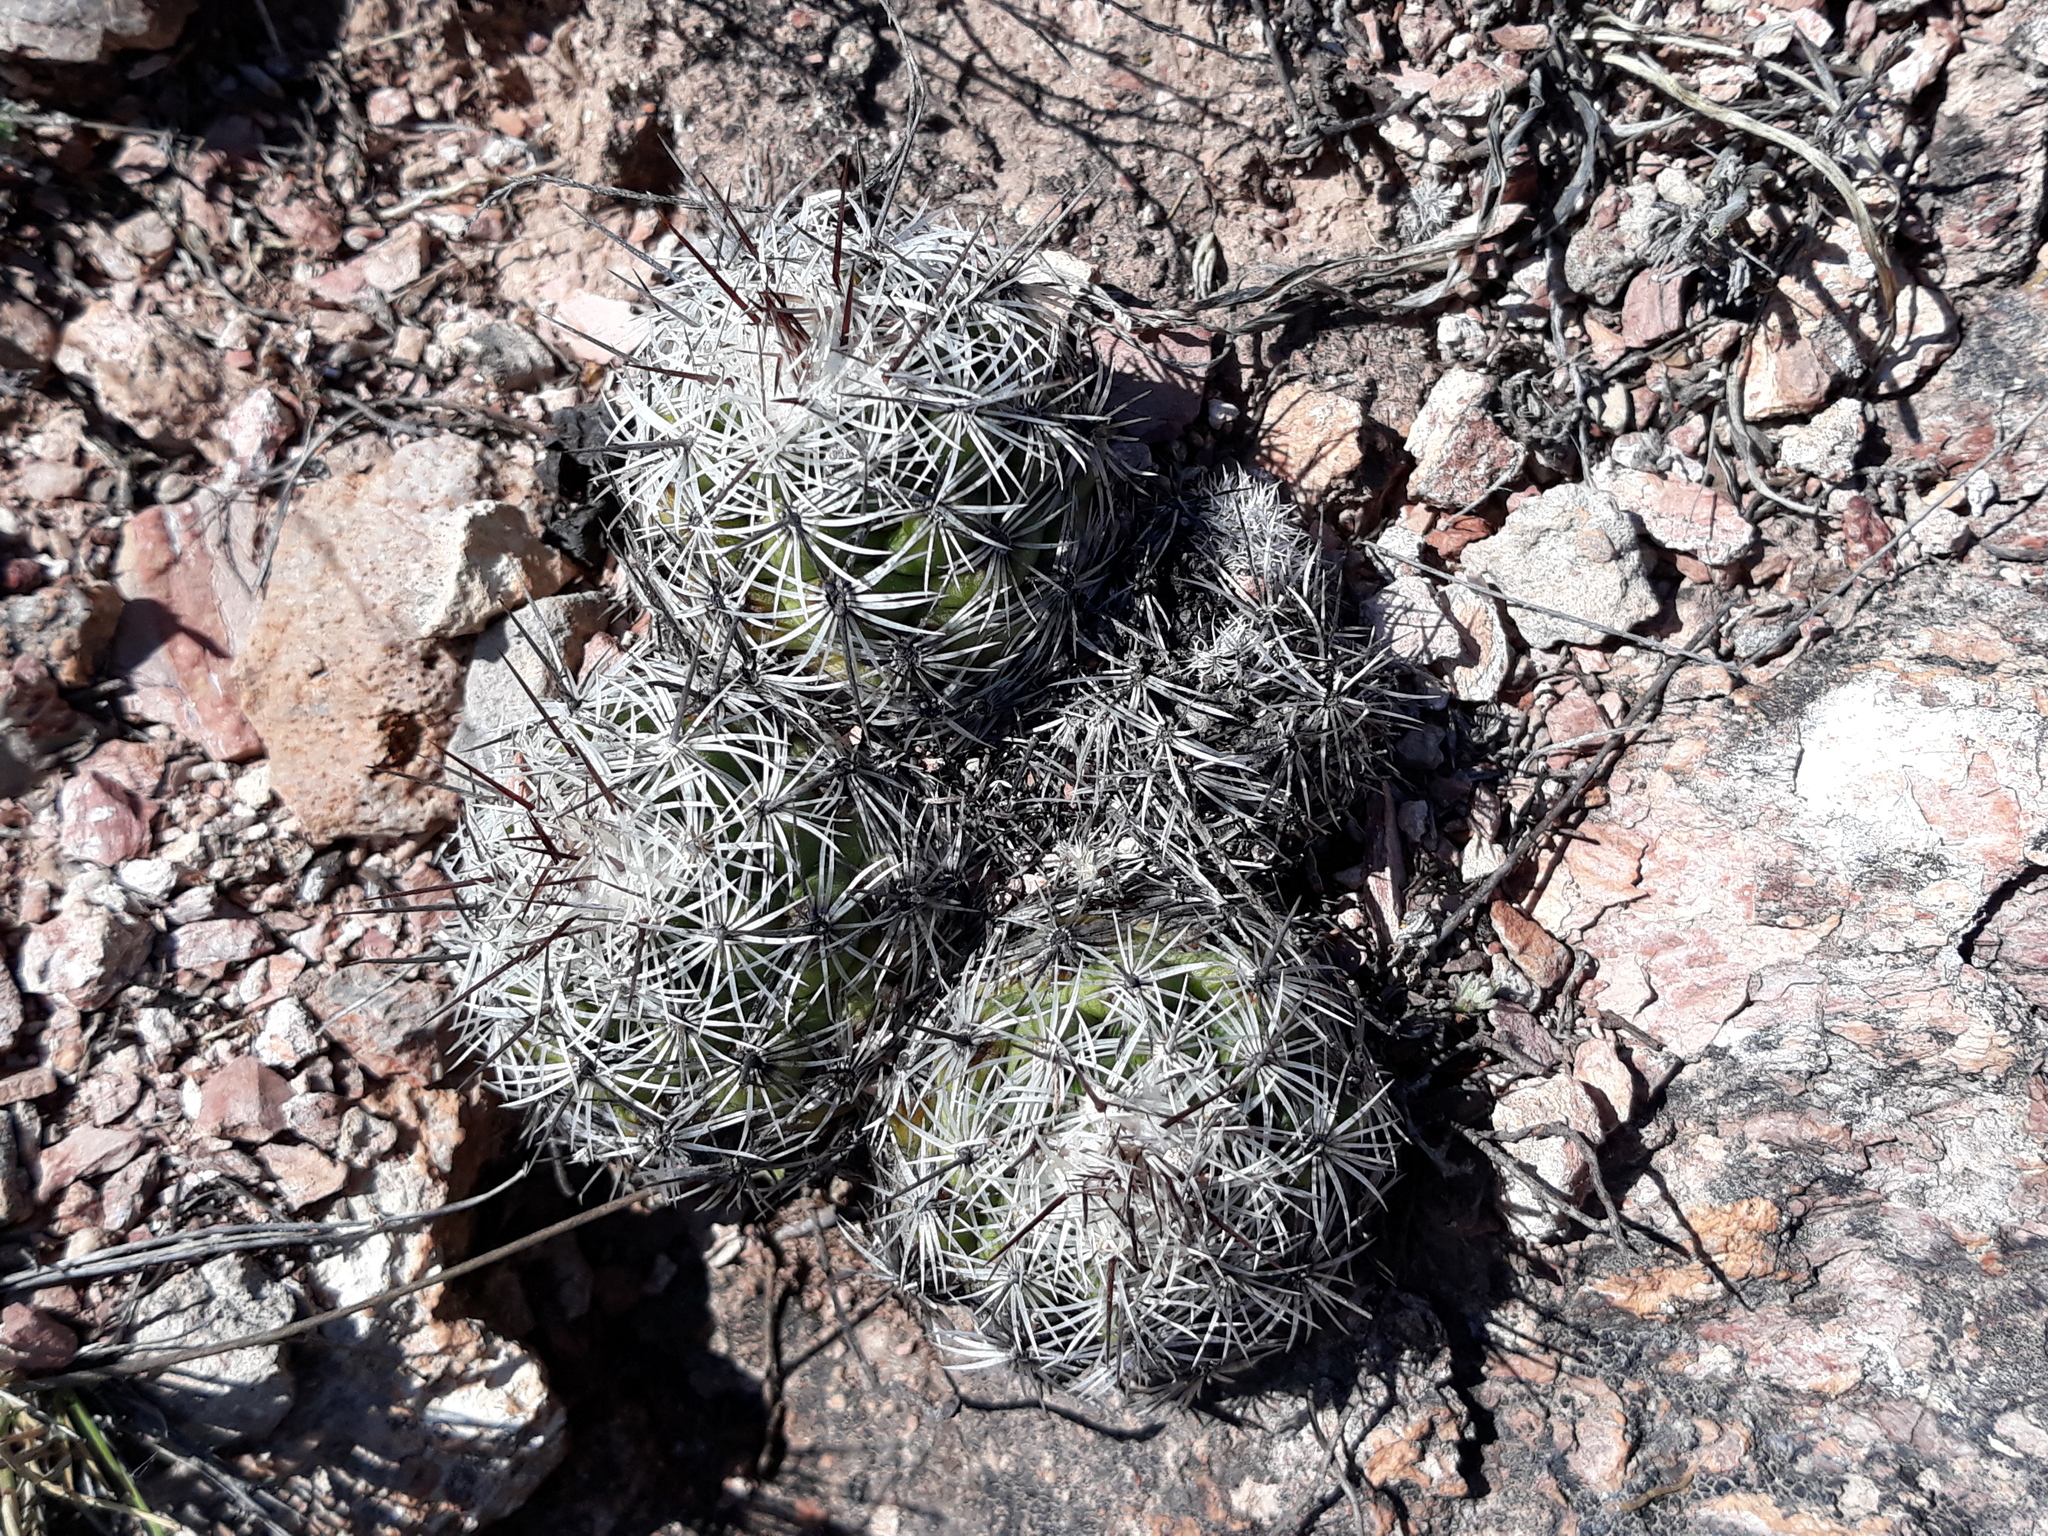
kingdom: Plantae
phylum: Tracheophyta
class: Magnoliopsida
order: Caryophyllales
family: Cactaceae
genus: Cochemiea
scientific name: Cochemiea conoidea
